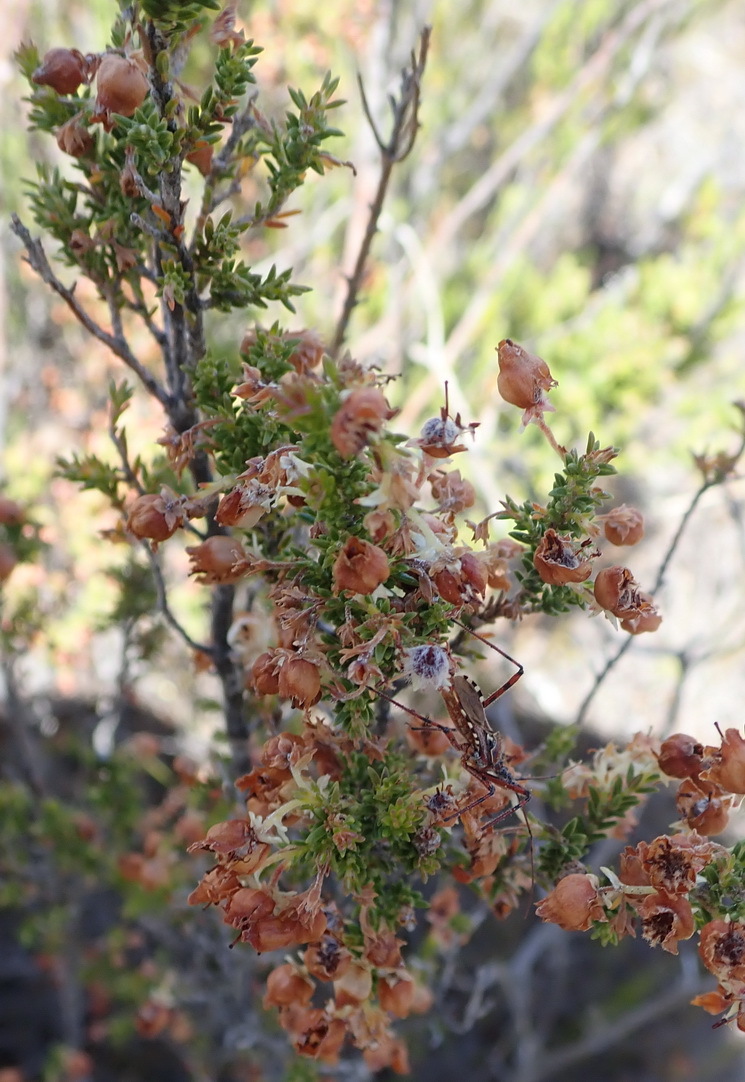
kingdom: Plantae
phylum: Tracheophyta
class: Magnoliopsida
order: Ericales
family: Ericaceae
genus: Erica
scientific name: Erica glomiflora
